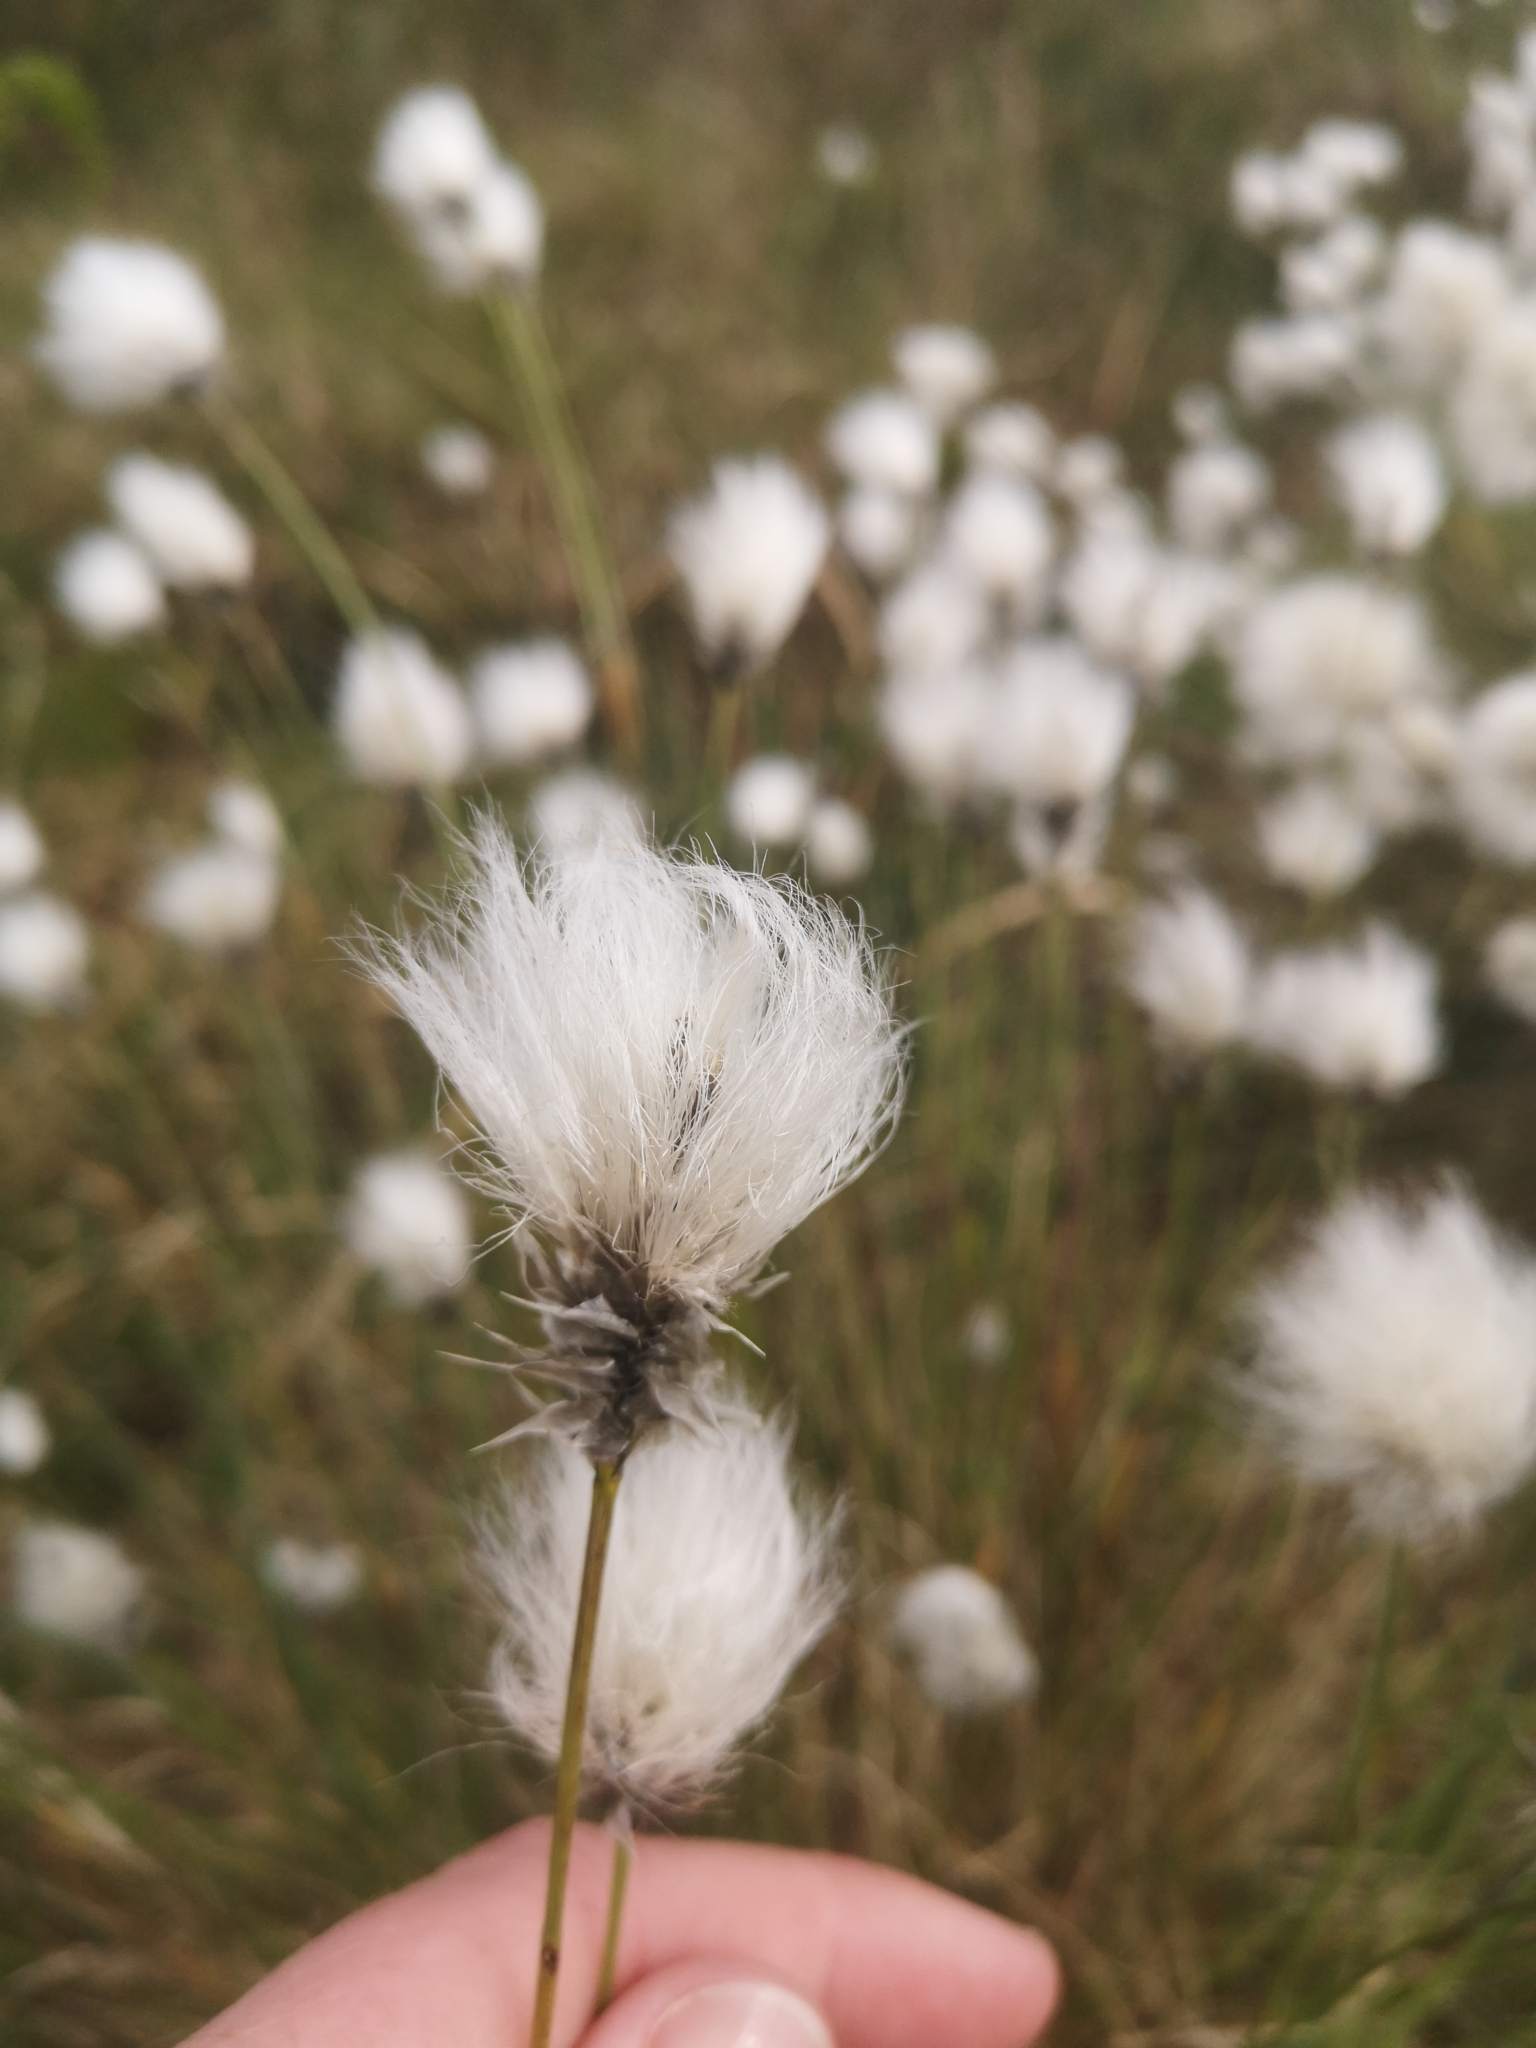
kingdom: Plantae
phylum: Tracheophyta
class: Liliopsida
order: Poales
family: Cyperaceae
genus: Eriophorum
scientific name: Eriophorum vaginatum
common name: Hare's-tail cottongrass
